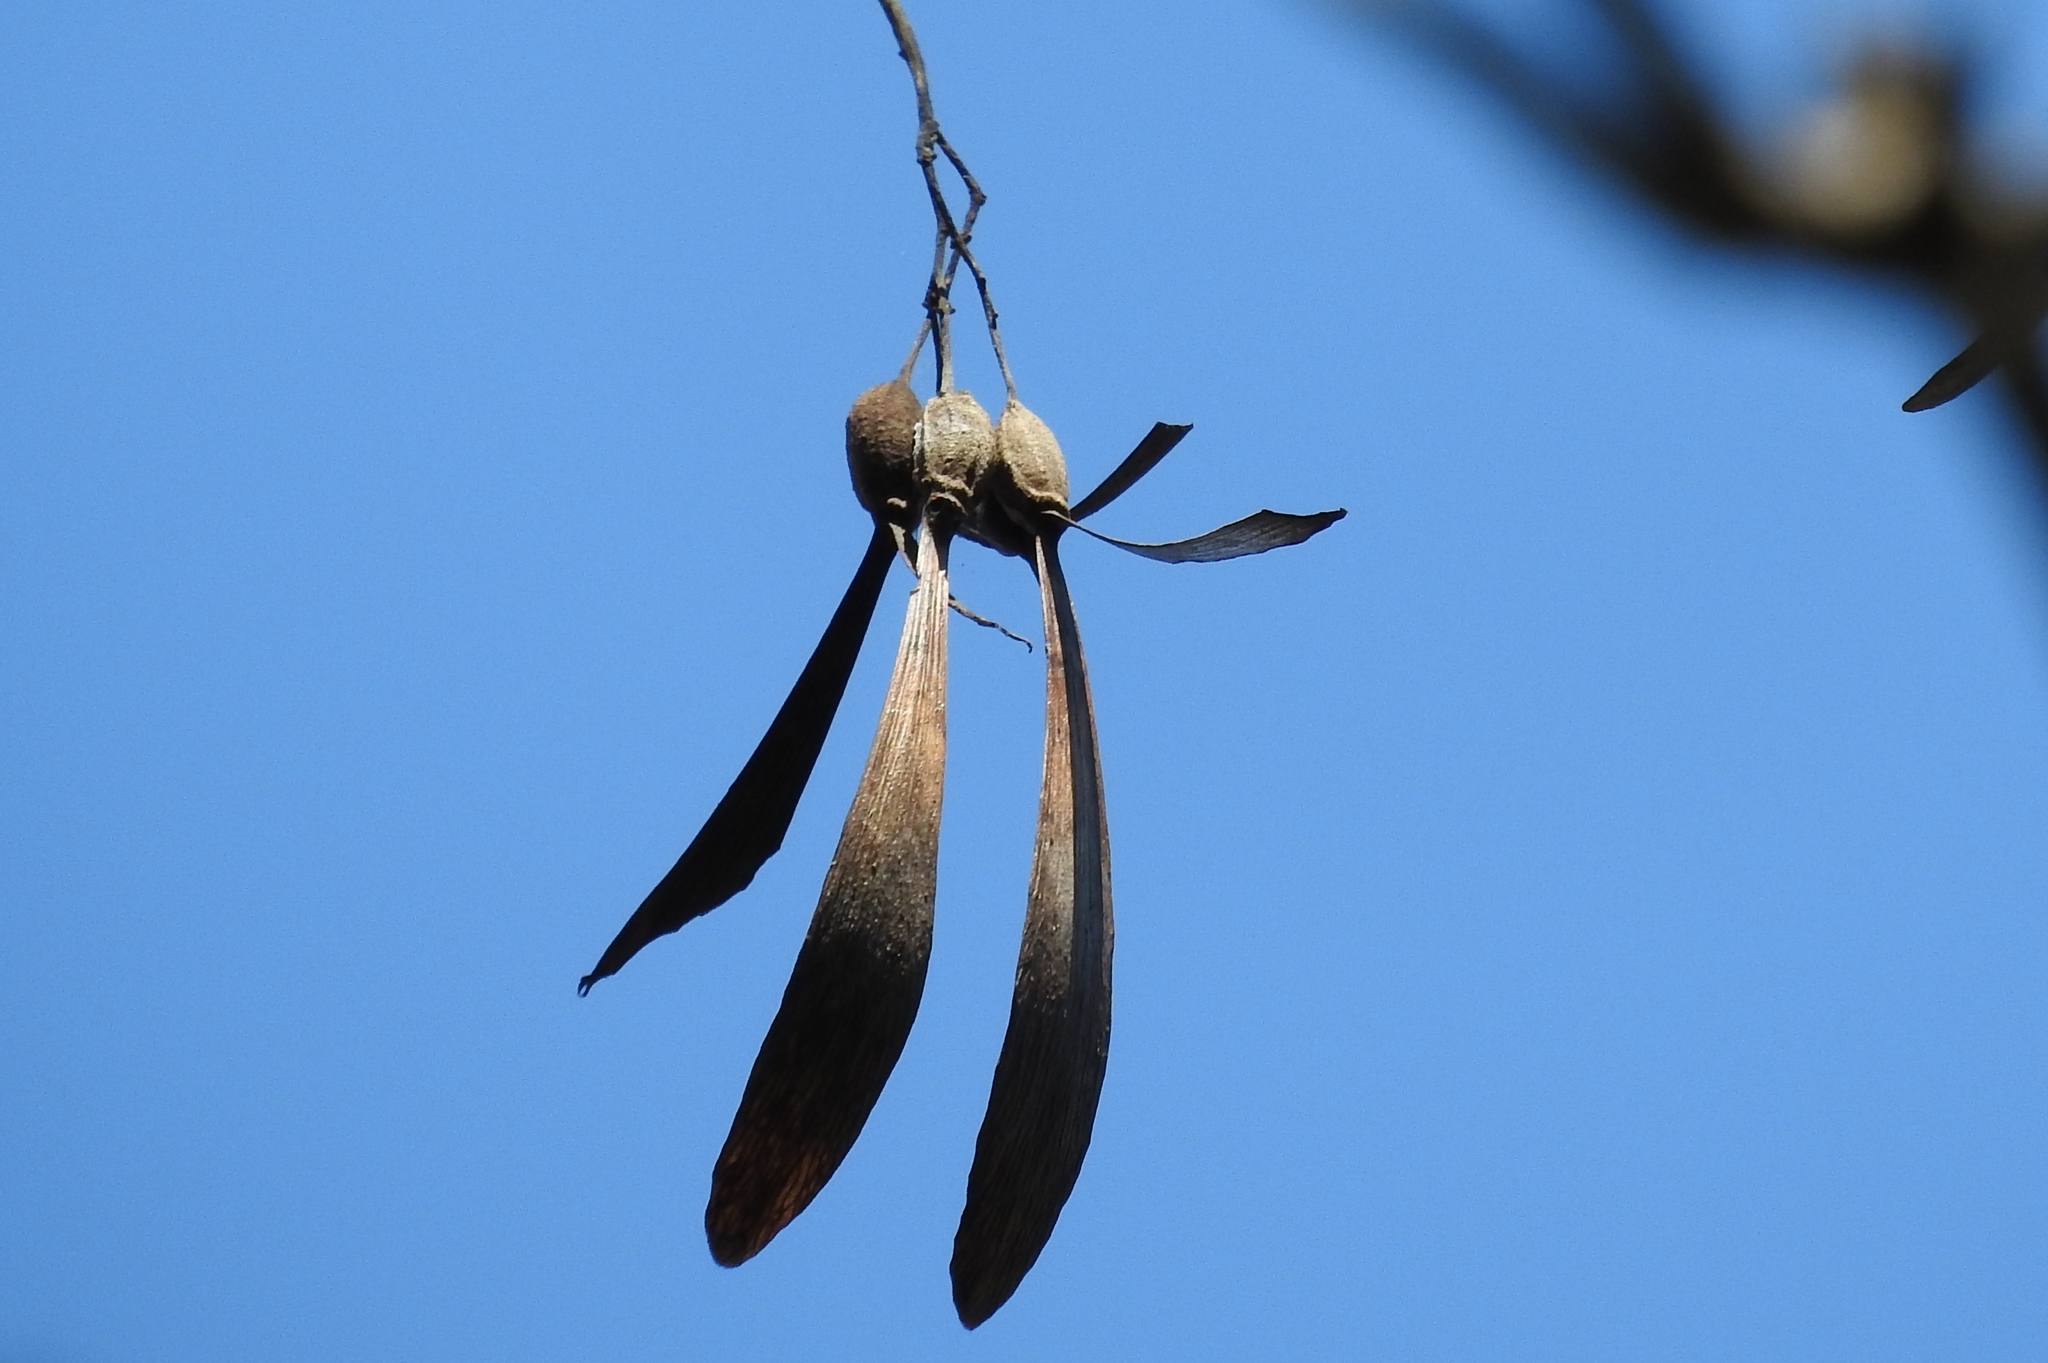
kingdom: Plantae
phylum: Tracheophyta
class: Magnoliopsida
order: Laurales
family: Hernandiaceae
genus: Gyrocarpus
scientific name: Gyrocarpus jatrophifolius
